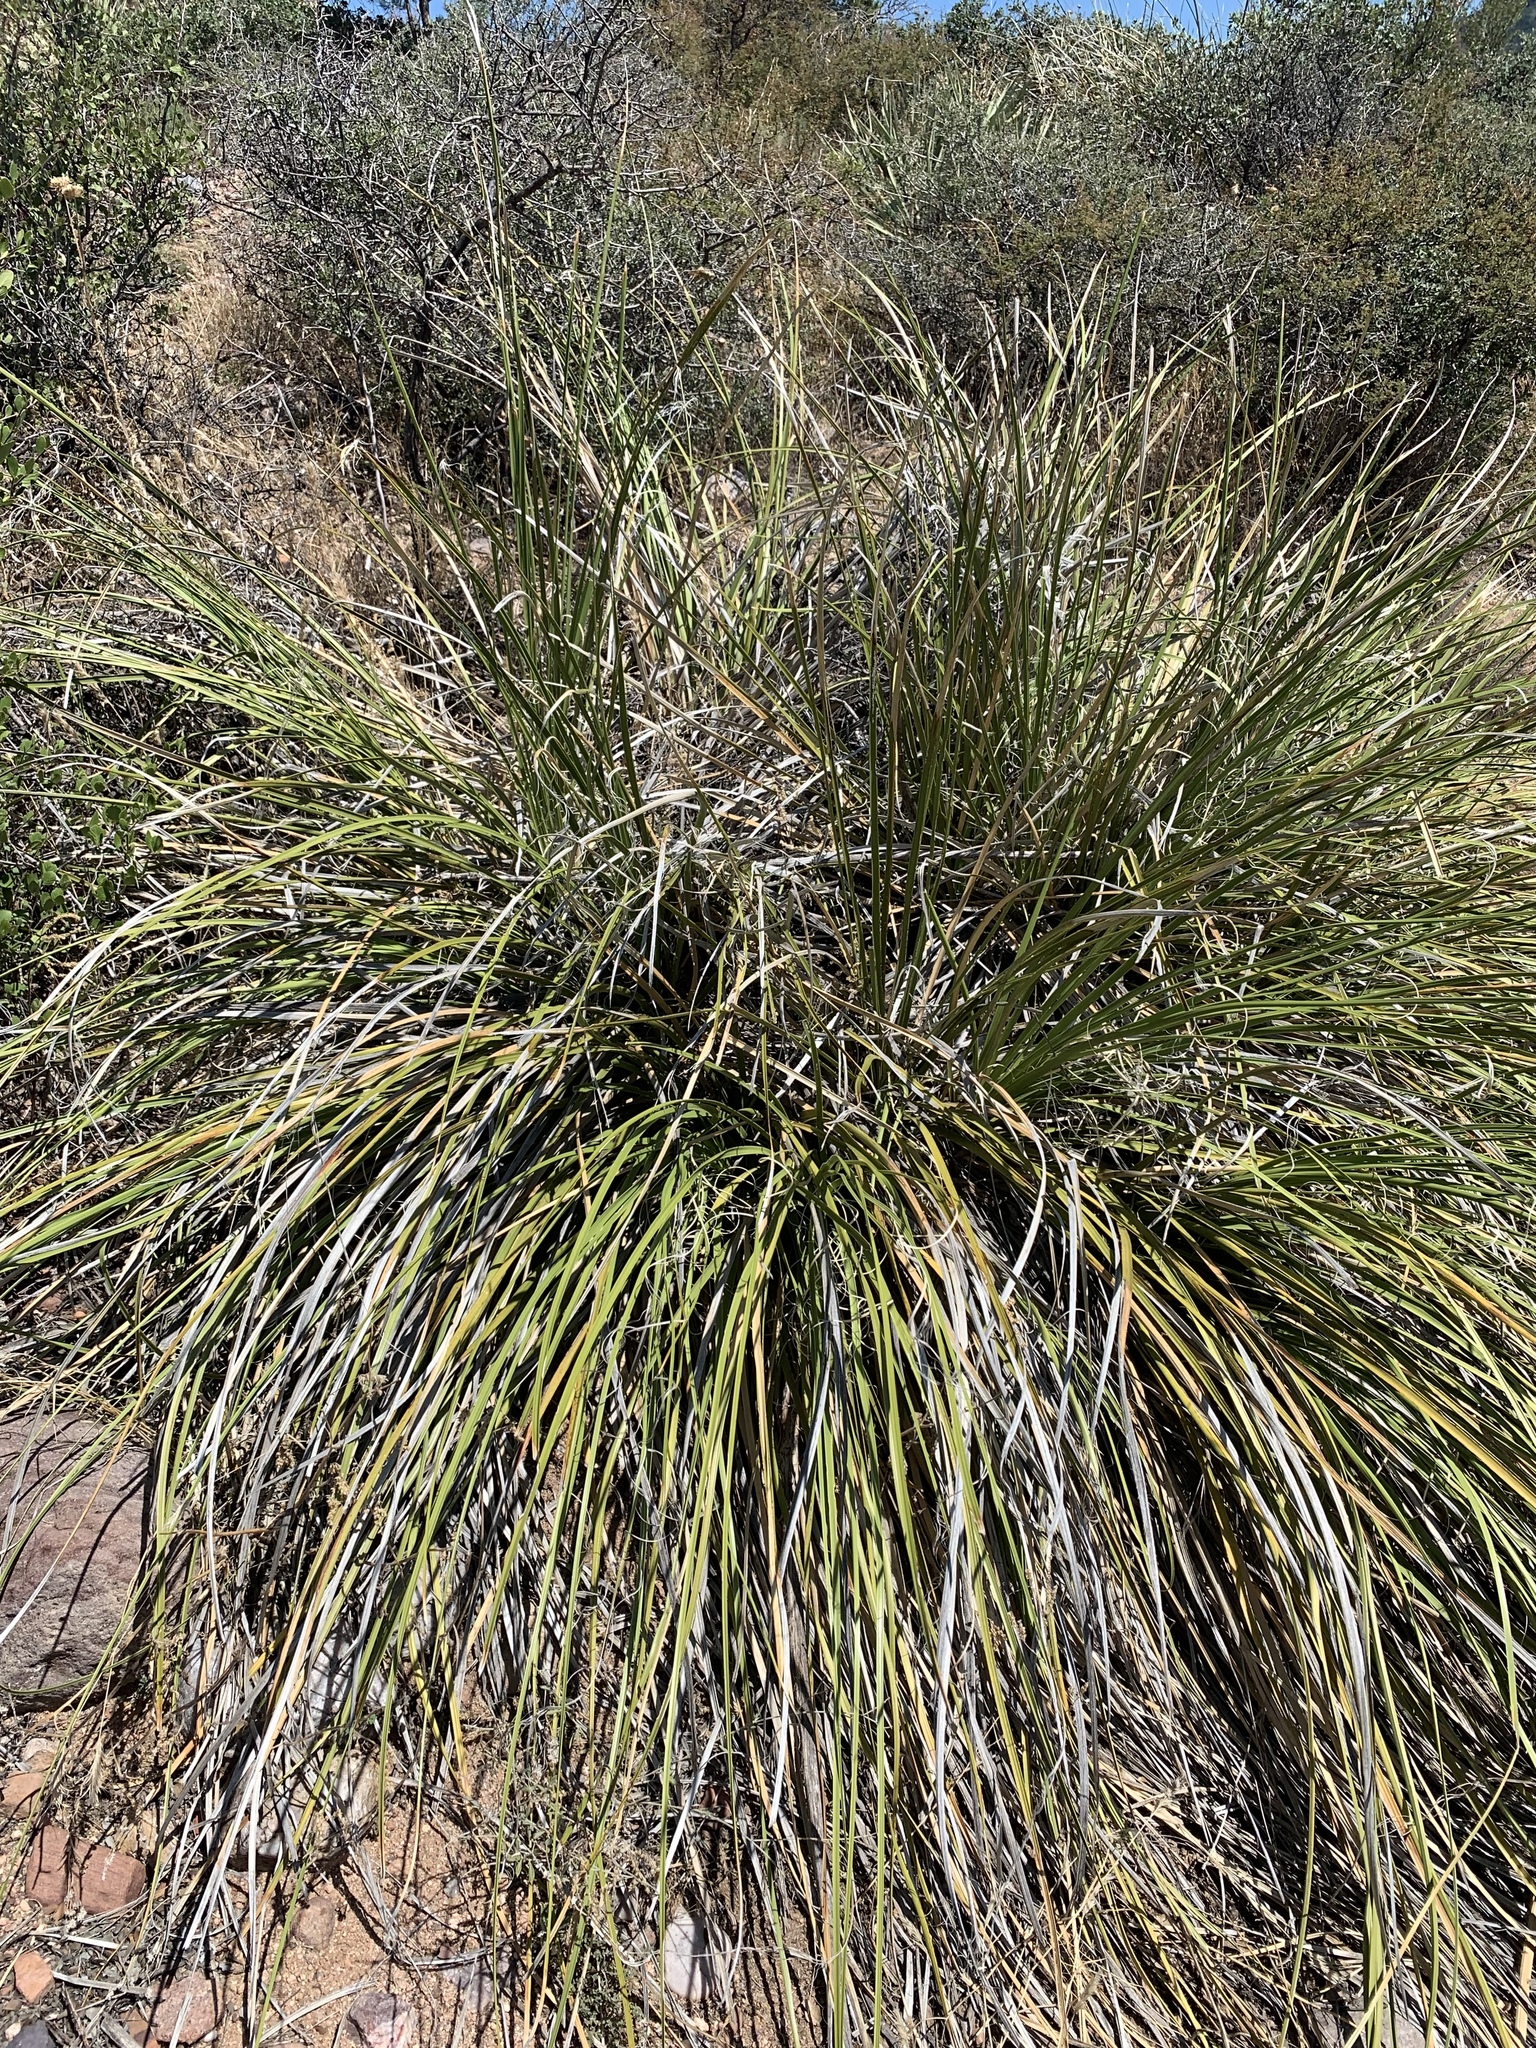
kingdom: Plantae
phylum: Tracheophyta
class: Liliopsida
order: Asparagales
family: Asparagaceae
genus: Nolina
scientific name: Nolina microcarpa
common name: Bear-grass
